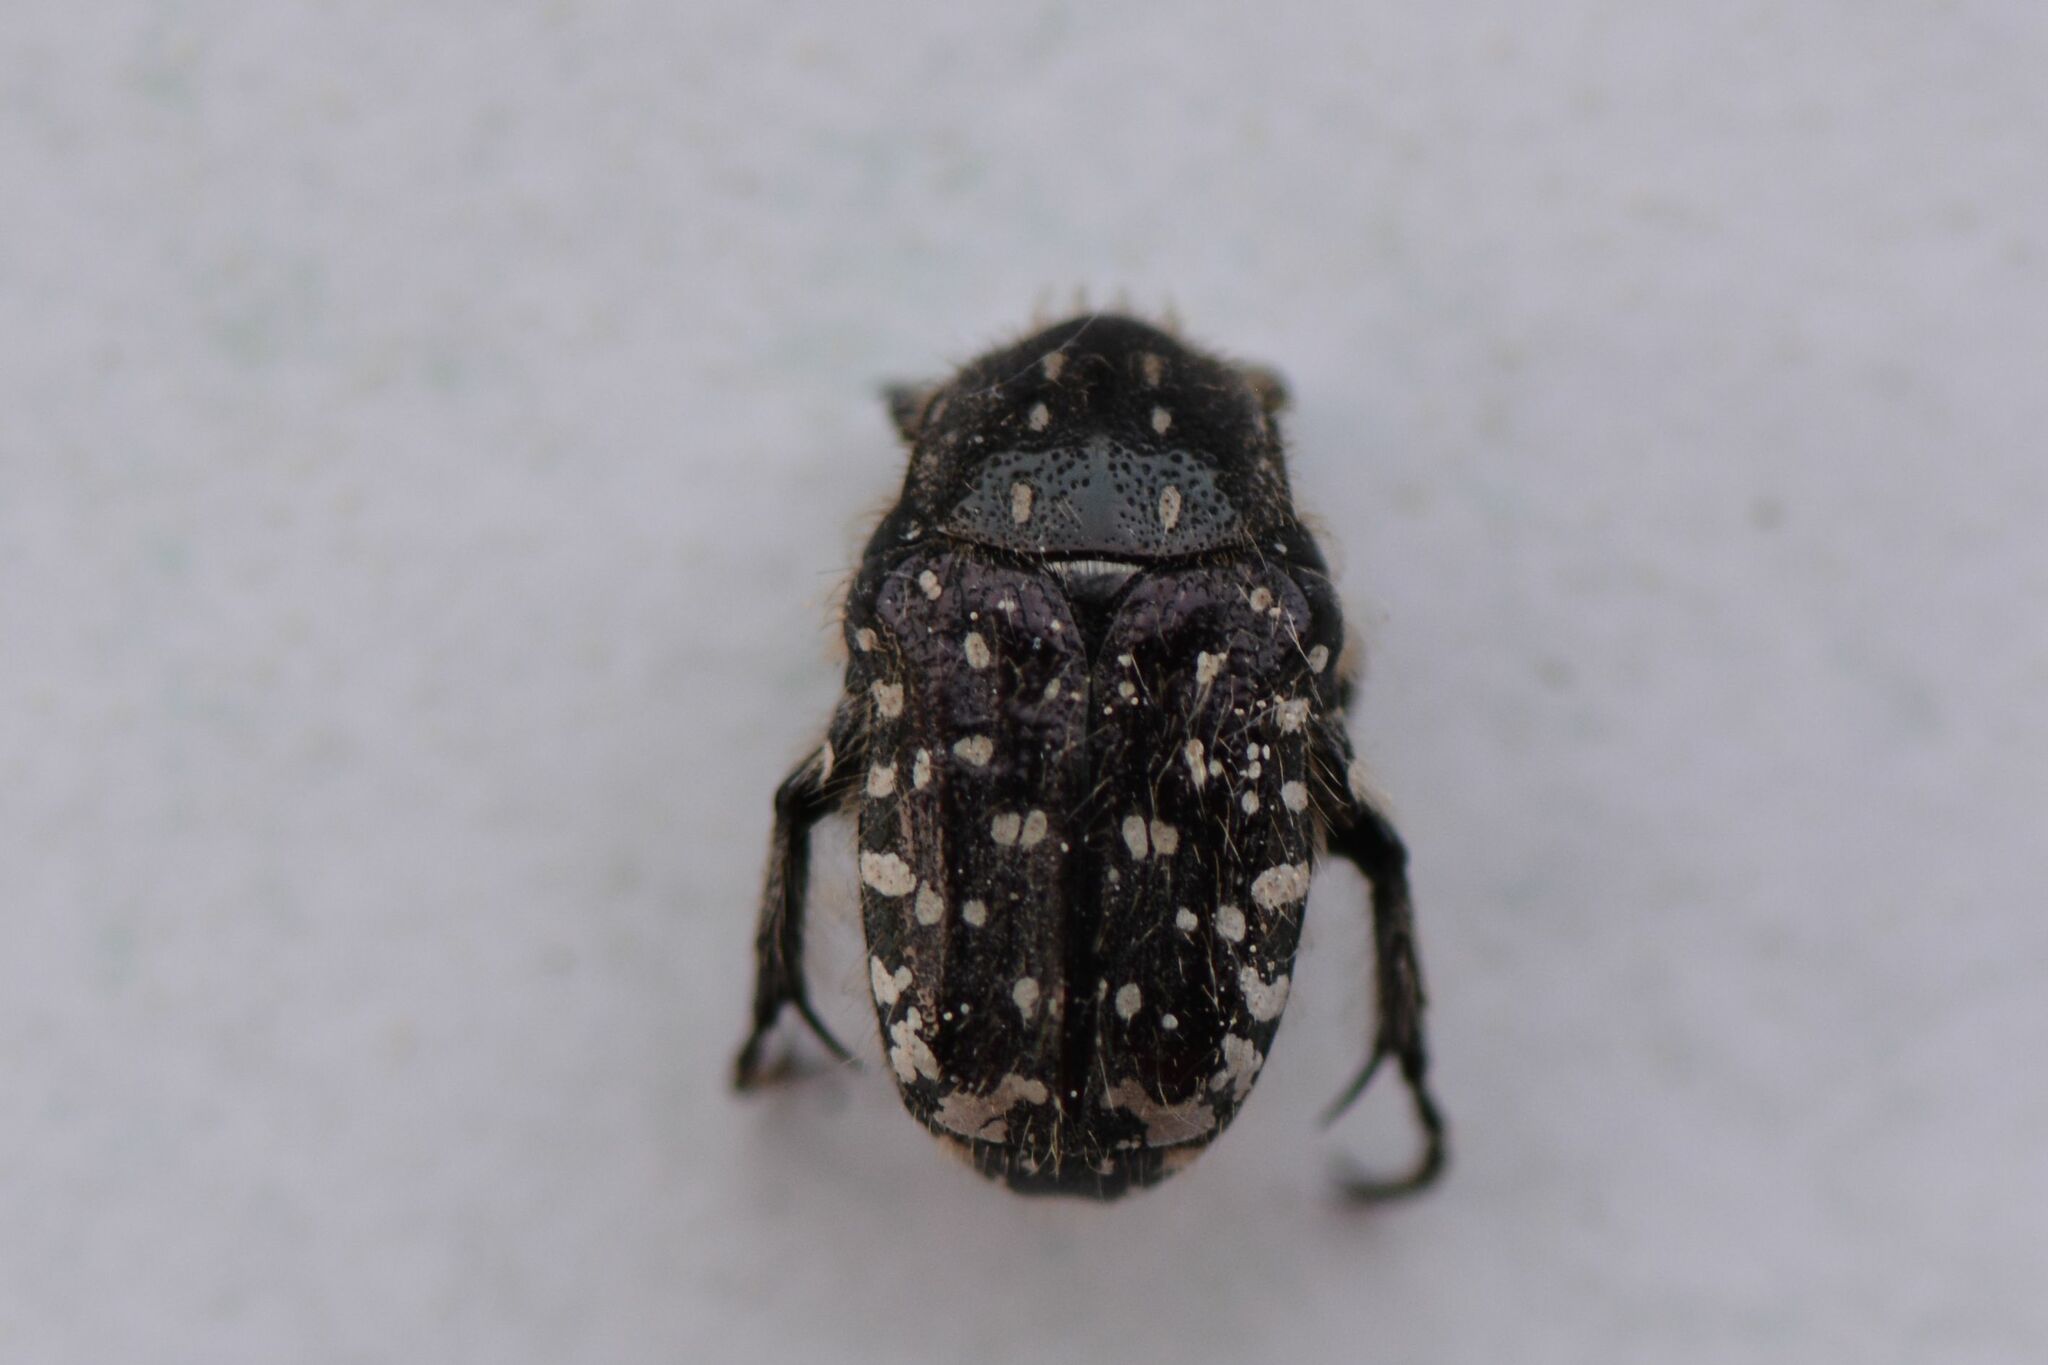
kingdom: Animalia
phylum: Arthropoda
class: Insecta
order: Coleoptera
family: Scarabaeidae
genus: Oxythyrea
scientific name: Oxythyrea funesta
